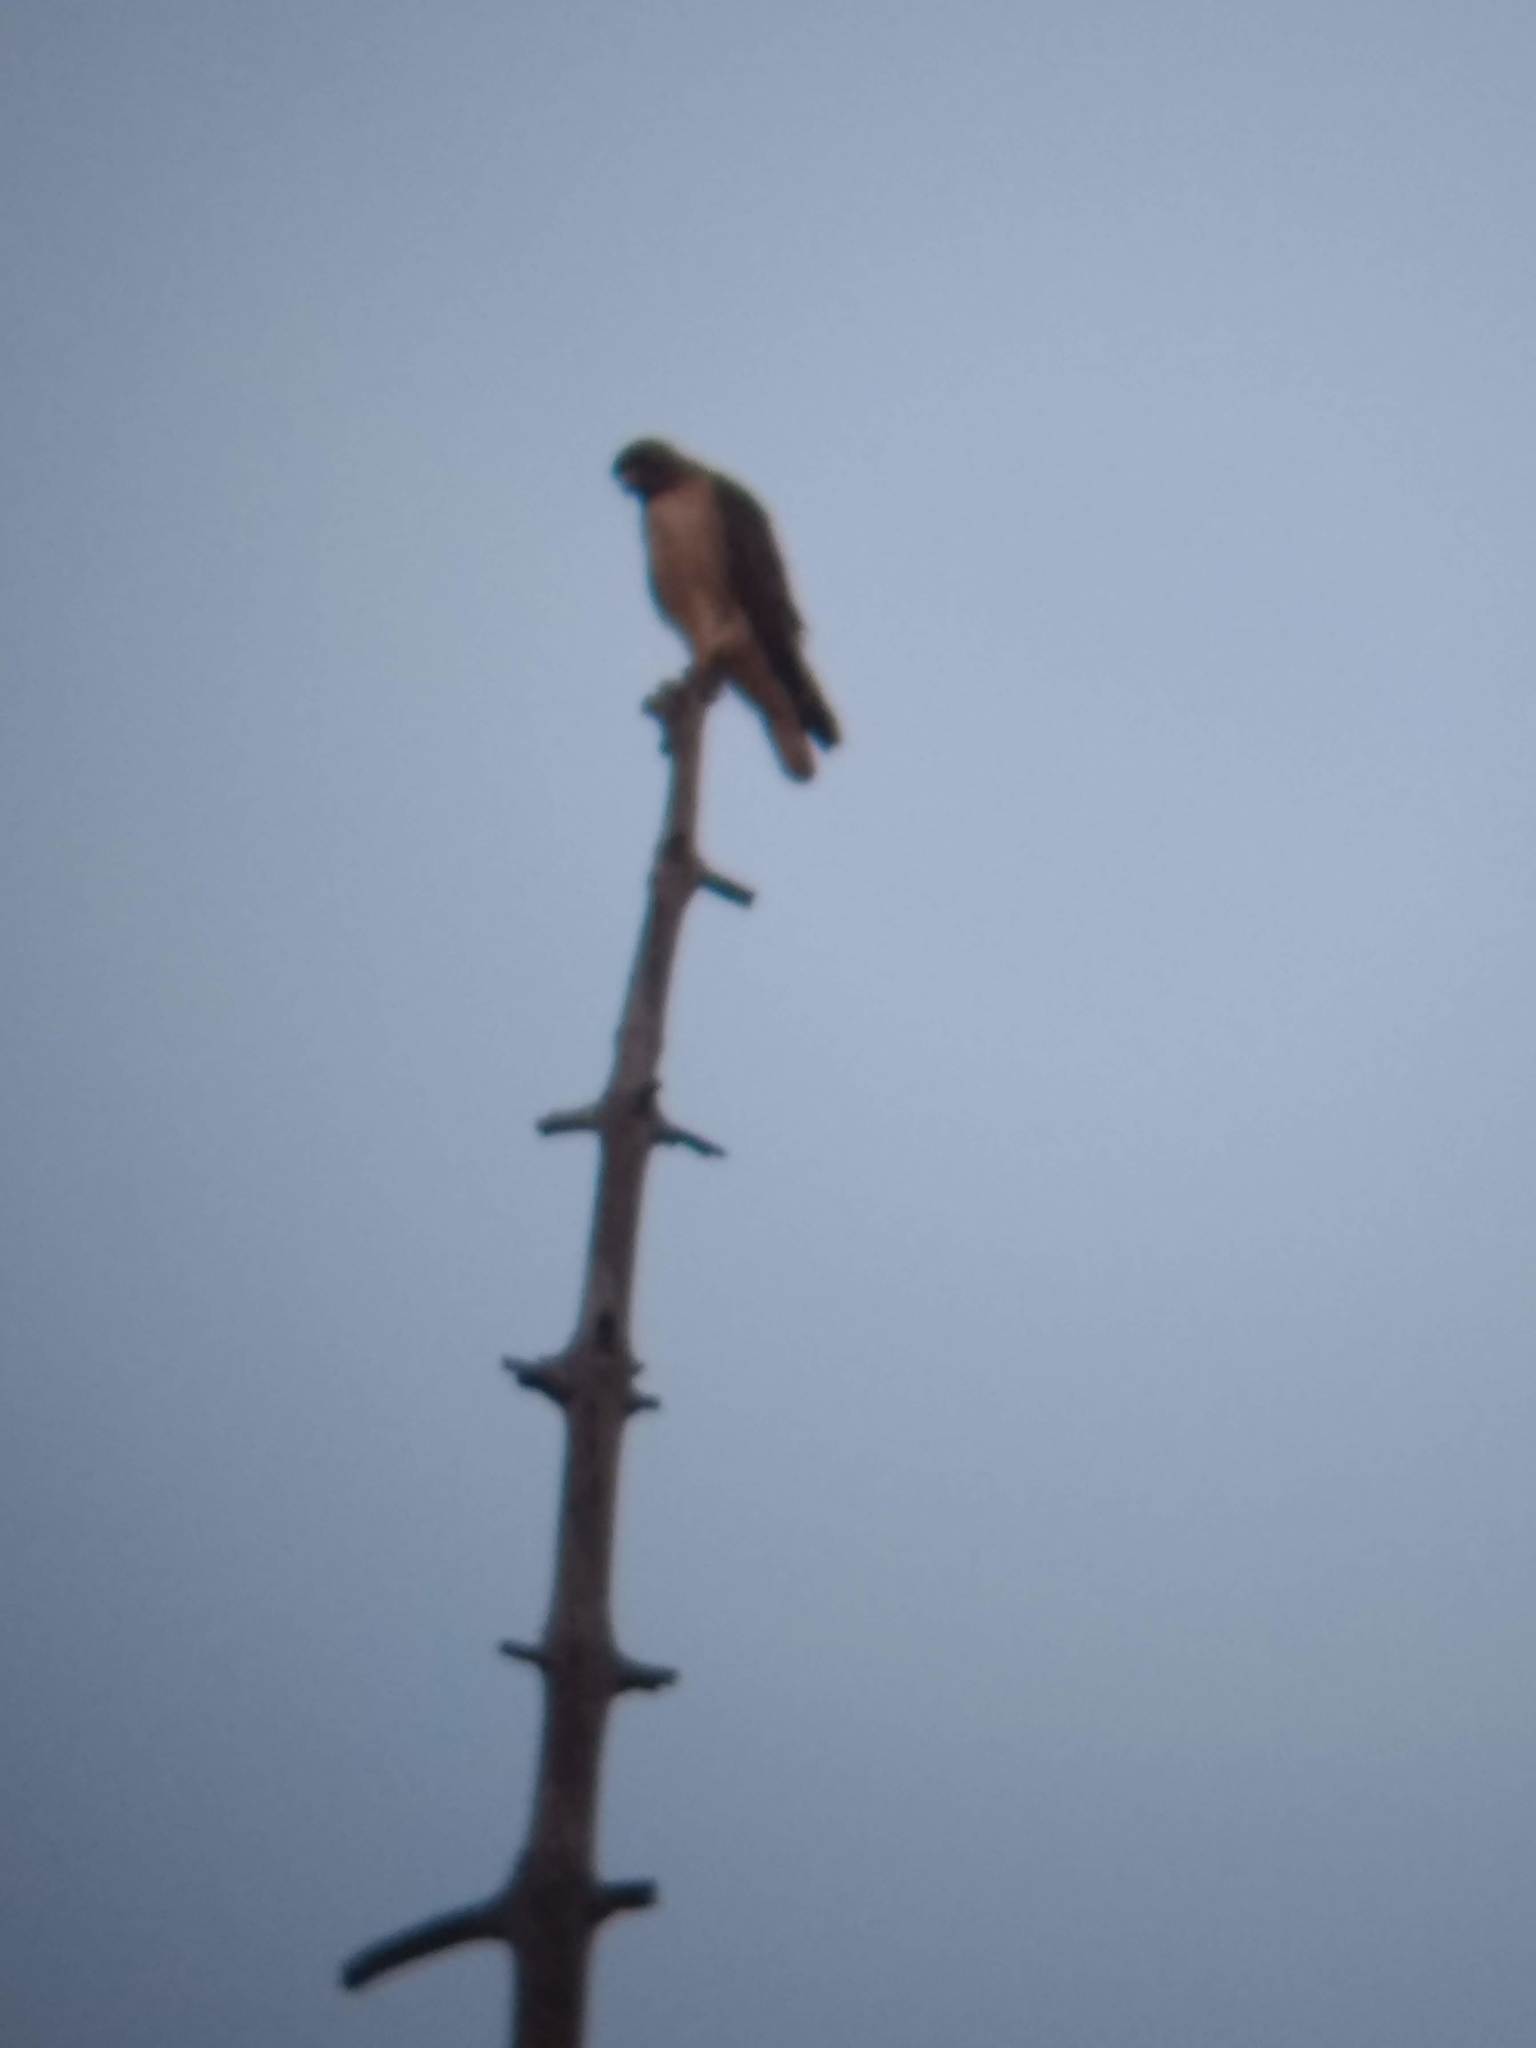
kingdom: Animalia
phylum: Chordata
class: Aves
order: Accipitriformes
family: Accipitridae
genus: Buteo
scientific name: Buteo jamaicensis
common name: Red-tailed hawk
